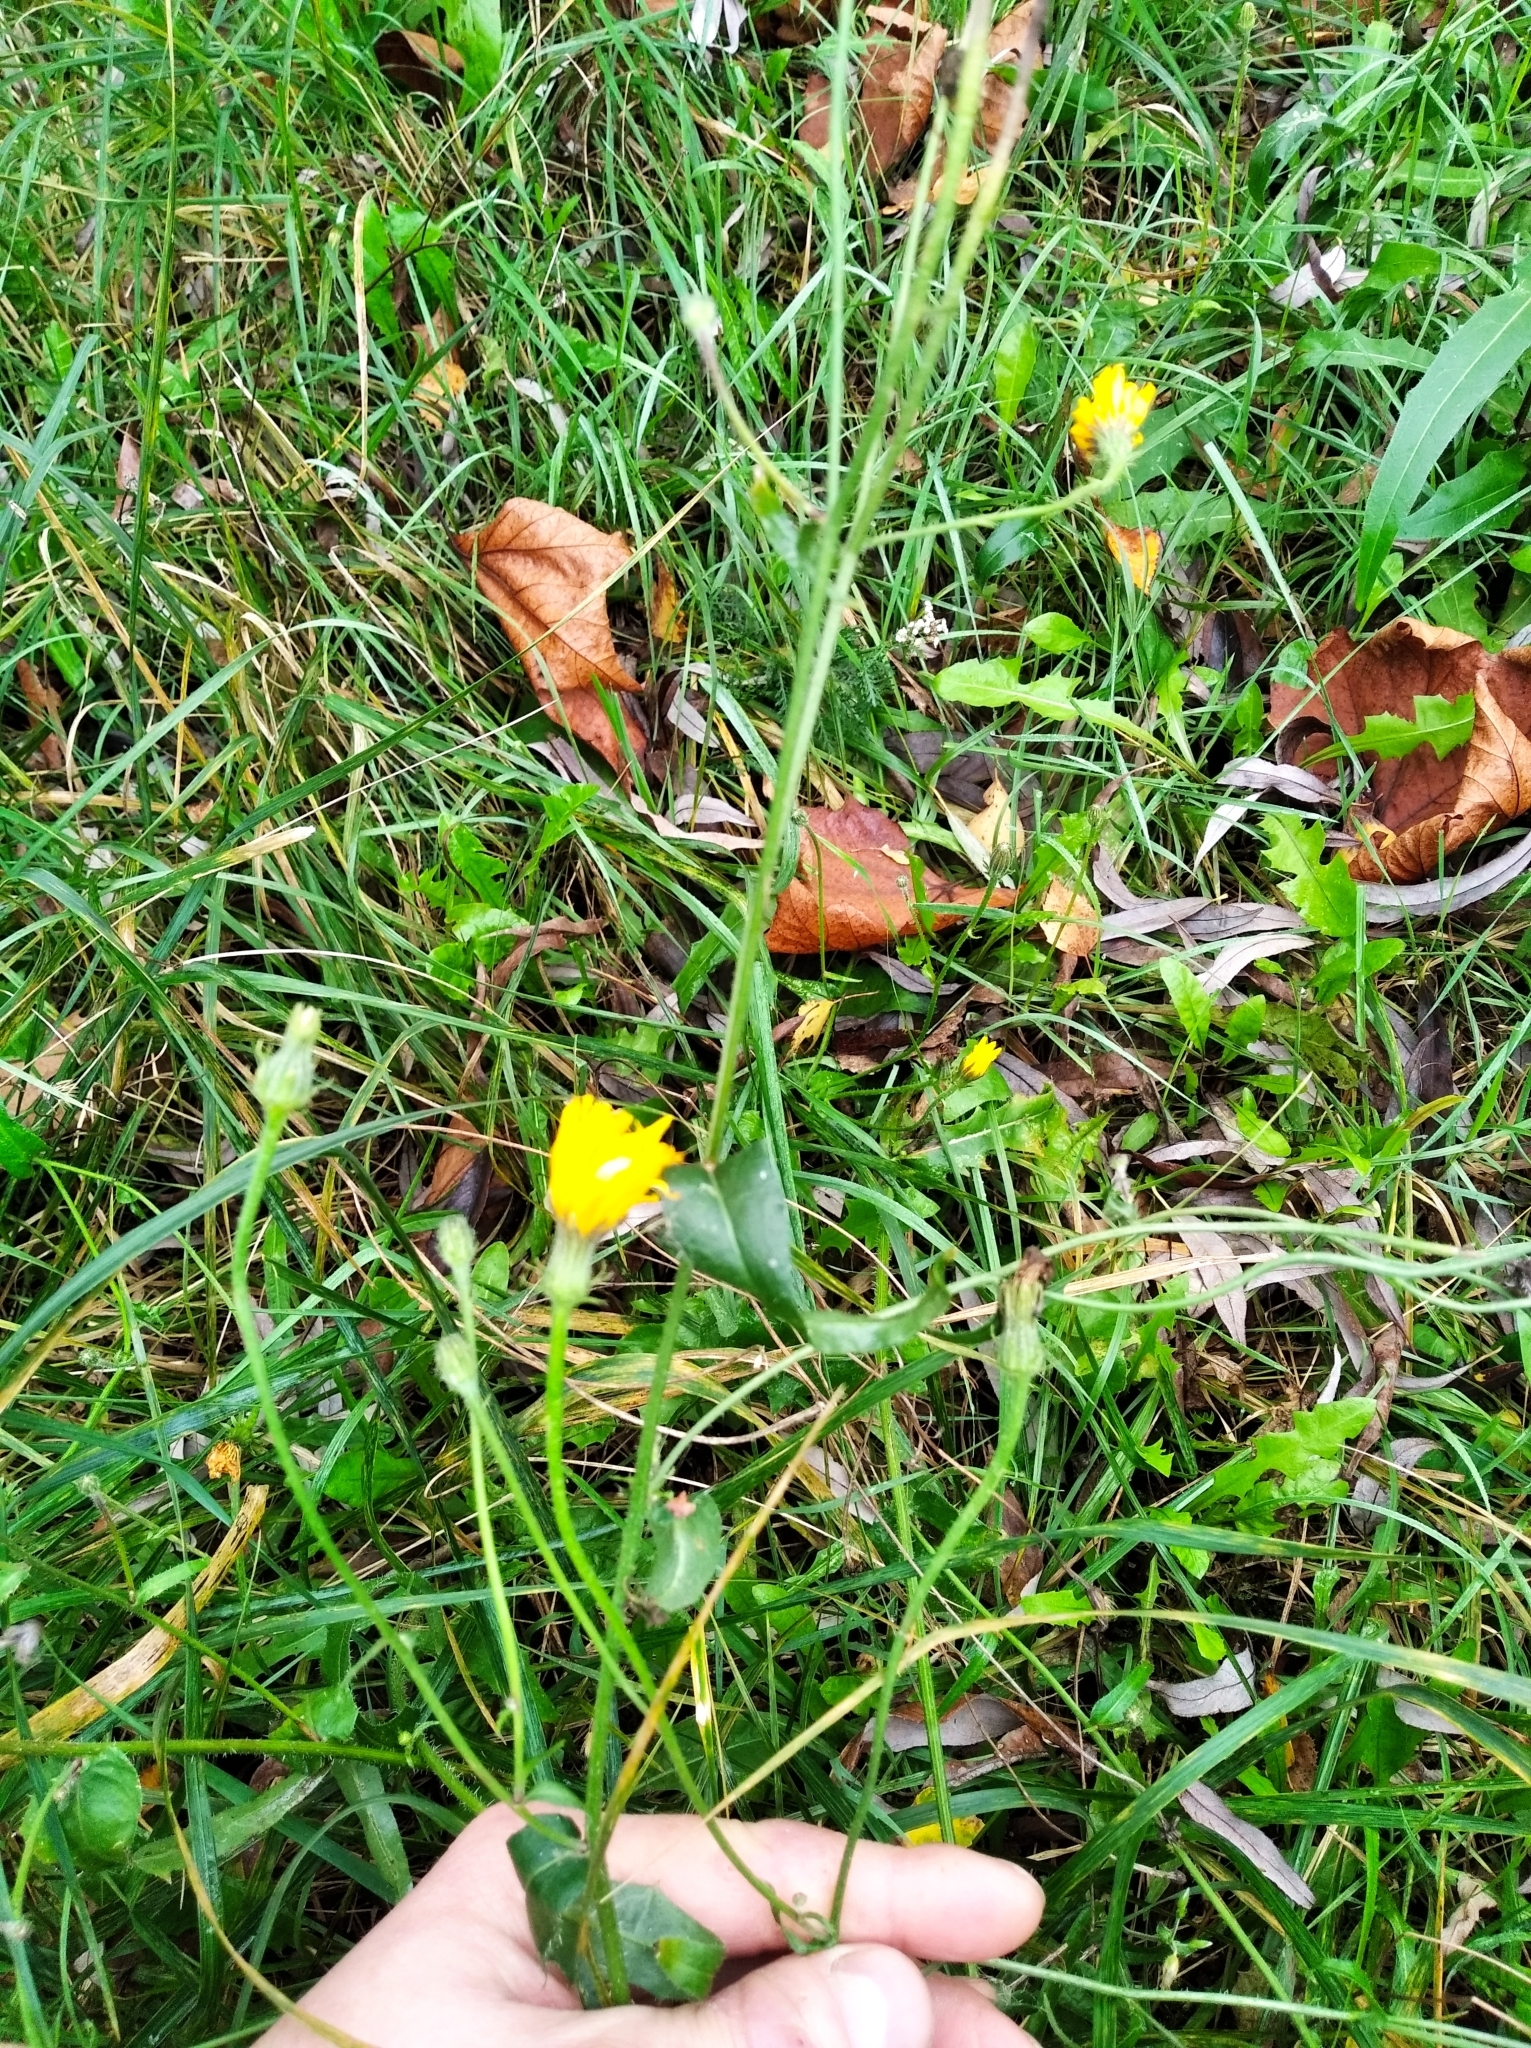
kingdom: Plantae
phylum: Tracheophyta
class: Magnoliopsida
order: Asterales
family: Asteraceae
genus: Picris
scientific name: Picris hieracioides
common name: Hawkweed oxtongue
